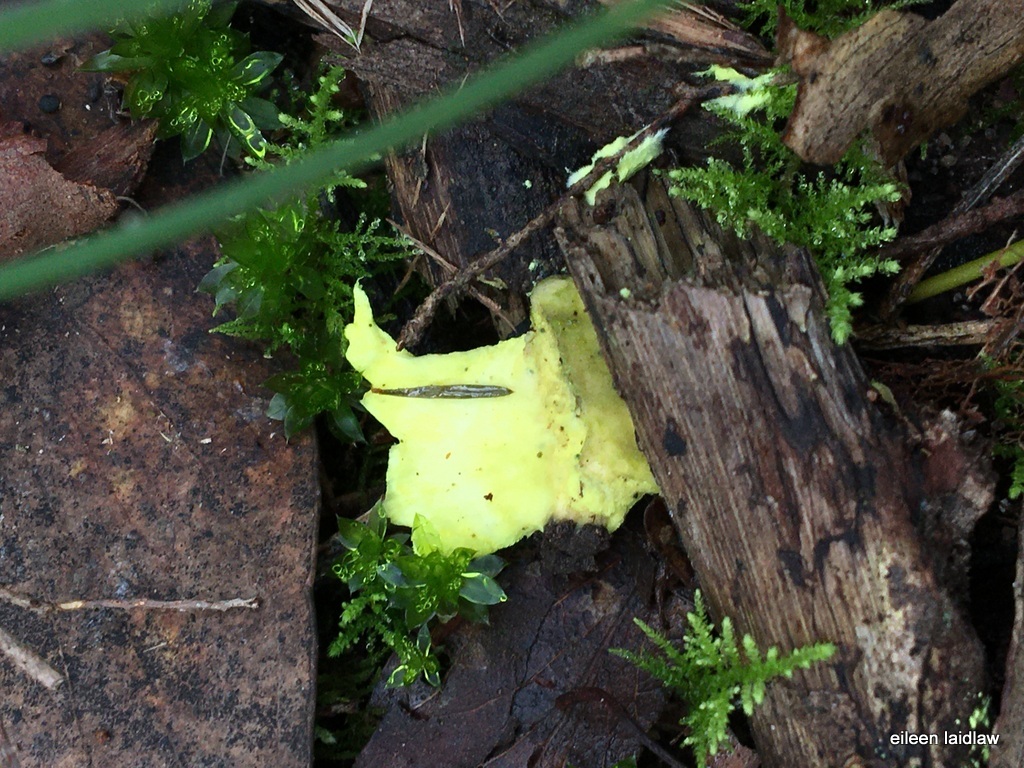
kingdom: Fungi
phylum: Basidiomycota
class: Agaricomycetes
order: Polyporales
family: Steccherinaceae
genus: Austeria
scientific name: Austeria citrea
